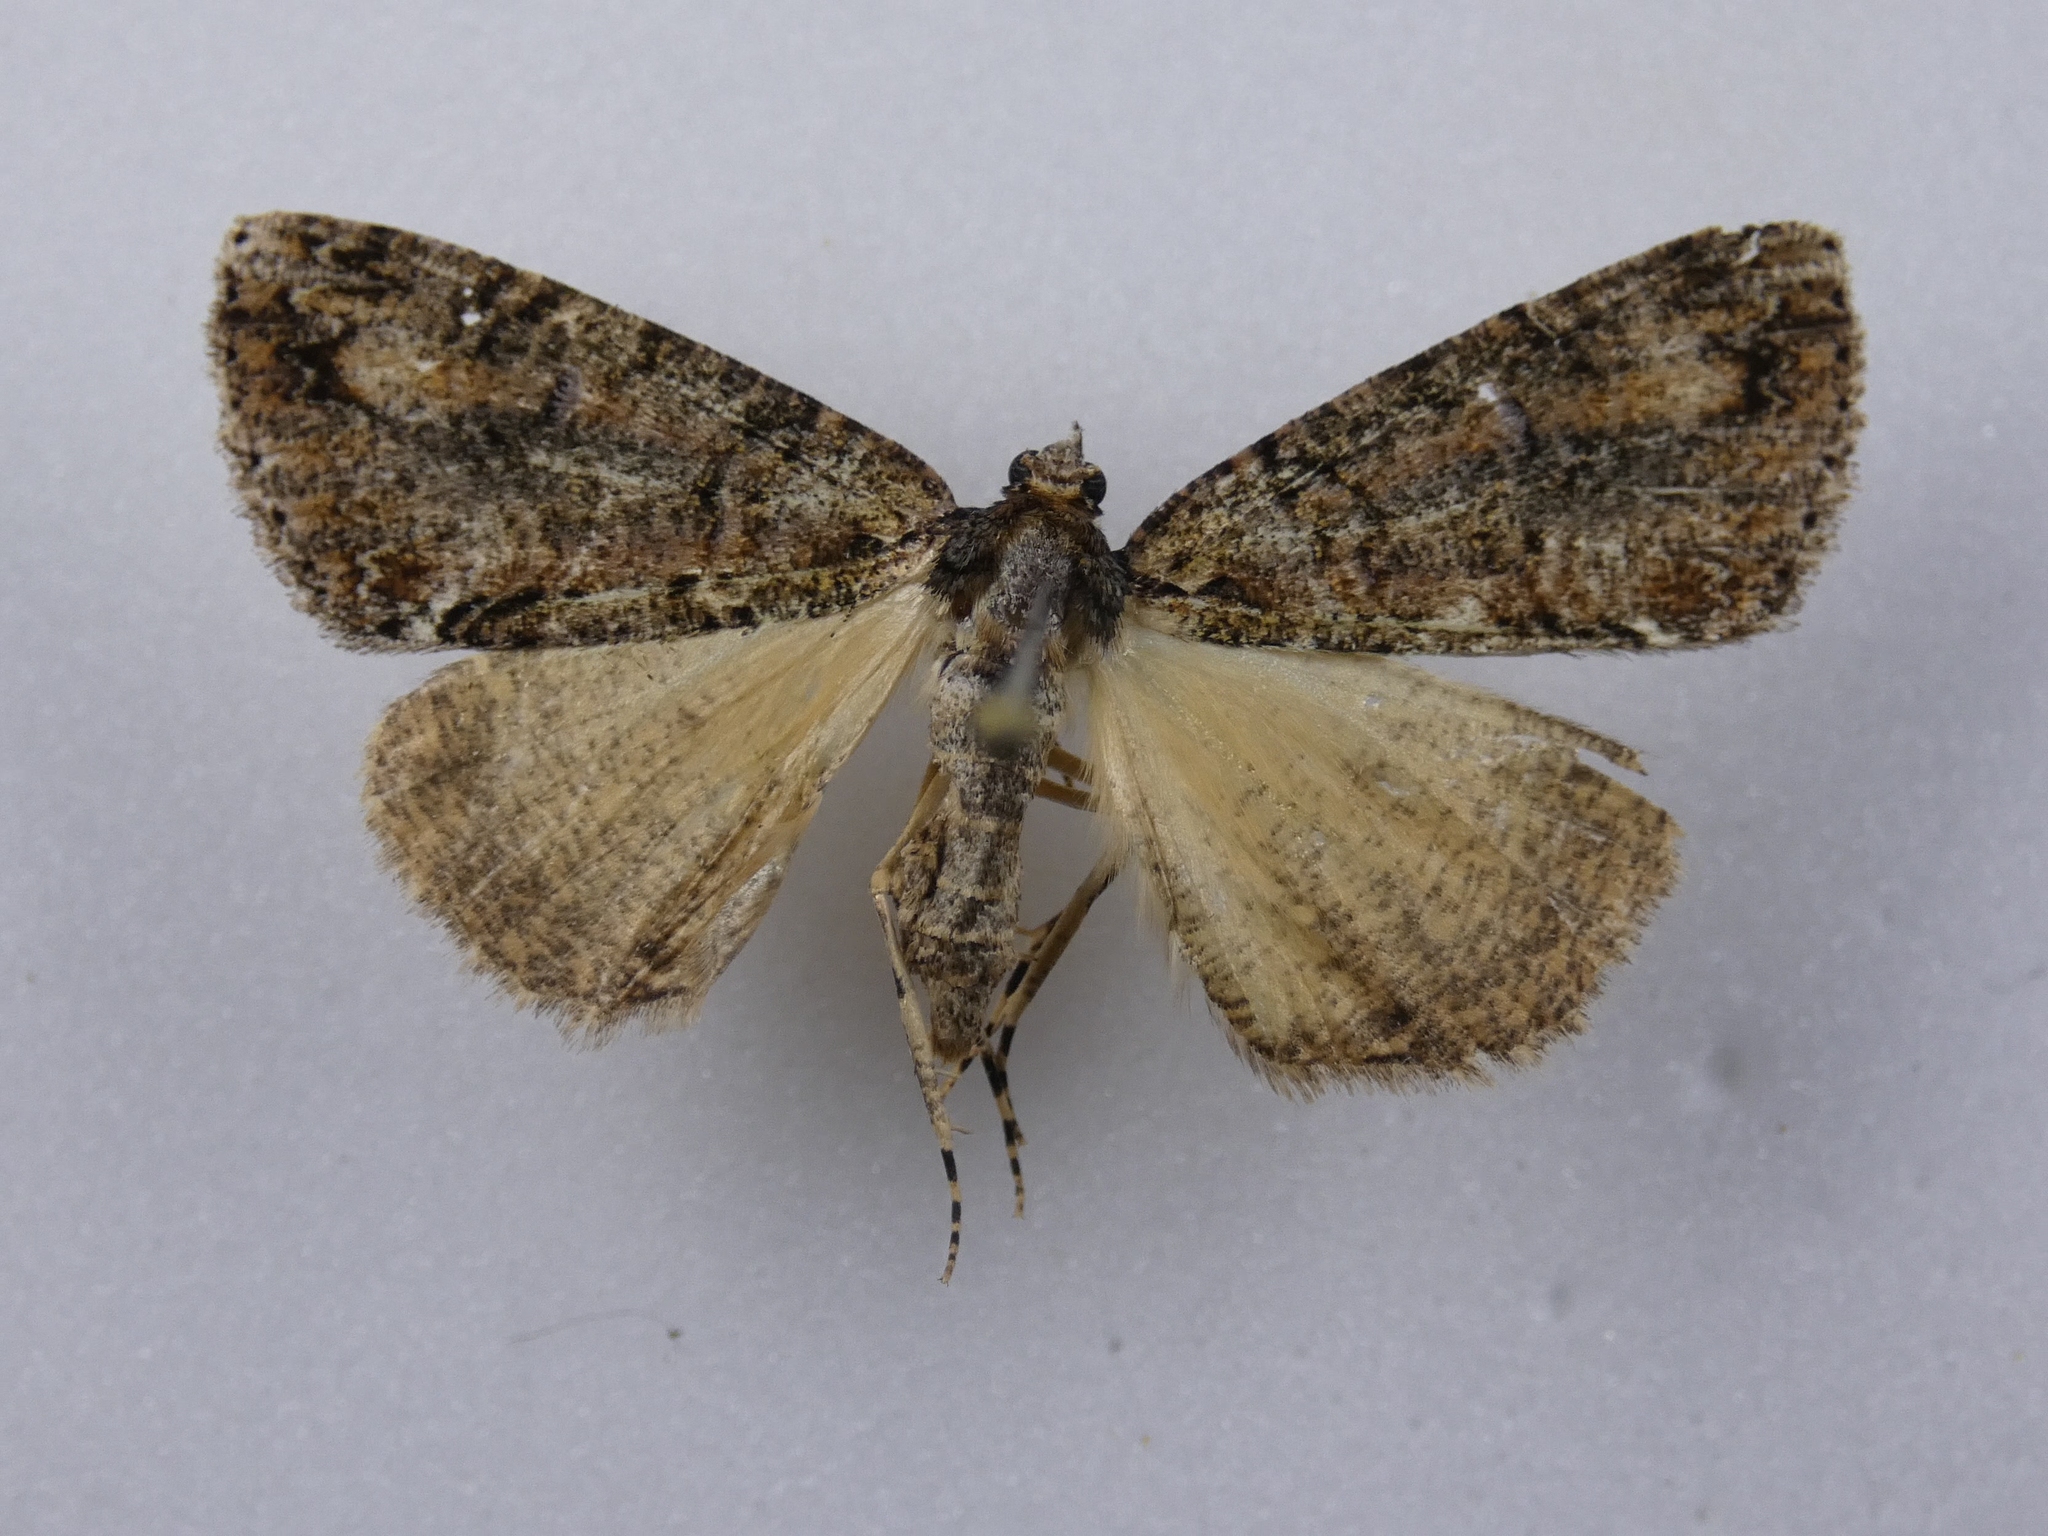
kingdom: Animalia
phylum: Arthropoda
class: Insecta
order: Lepidoptera
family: Geometridae
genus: Pseudocoremia
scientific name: Pseudocoremia suavis
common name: Common forest looper
